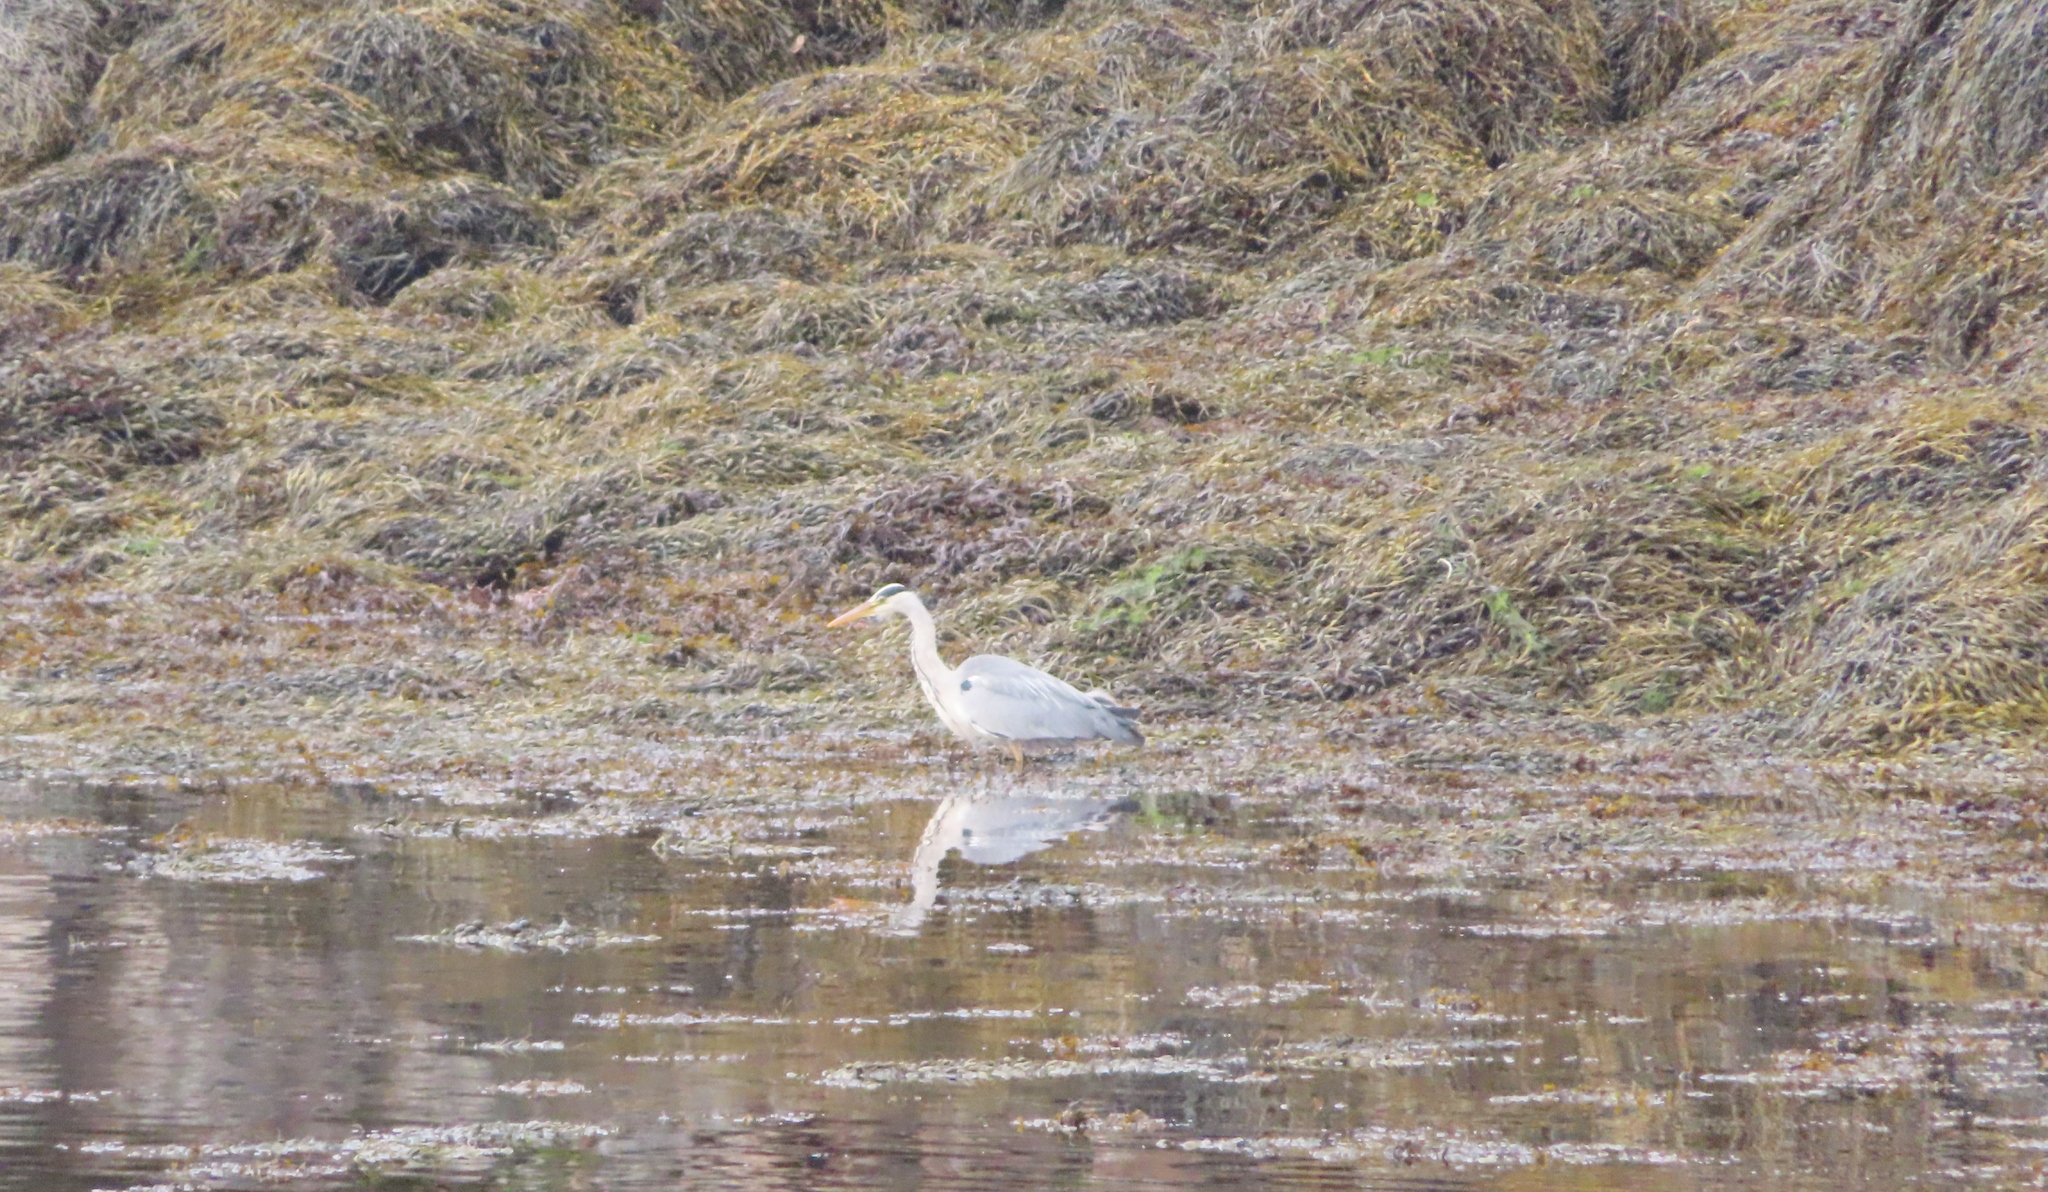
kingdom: Animalia
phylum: Chordata
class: Aves
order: Pelecaniformes
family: Ardeidae
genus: Ardea
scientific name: Ardea cinerea
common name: Grey heron
